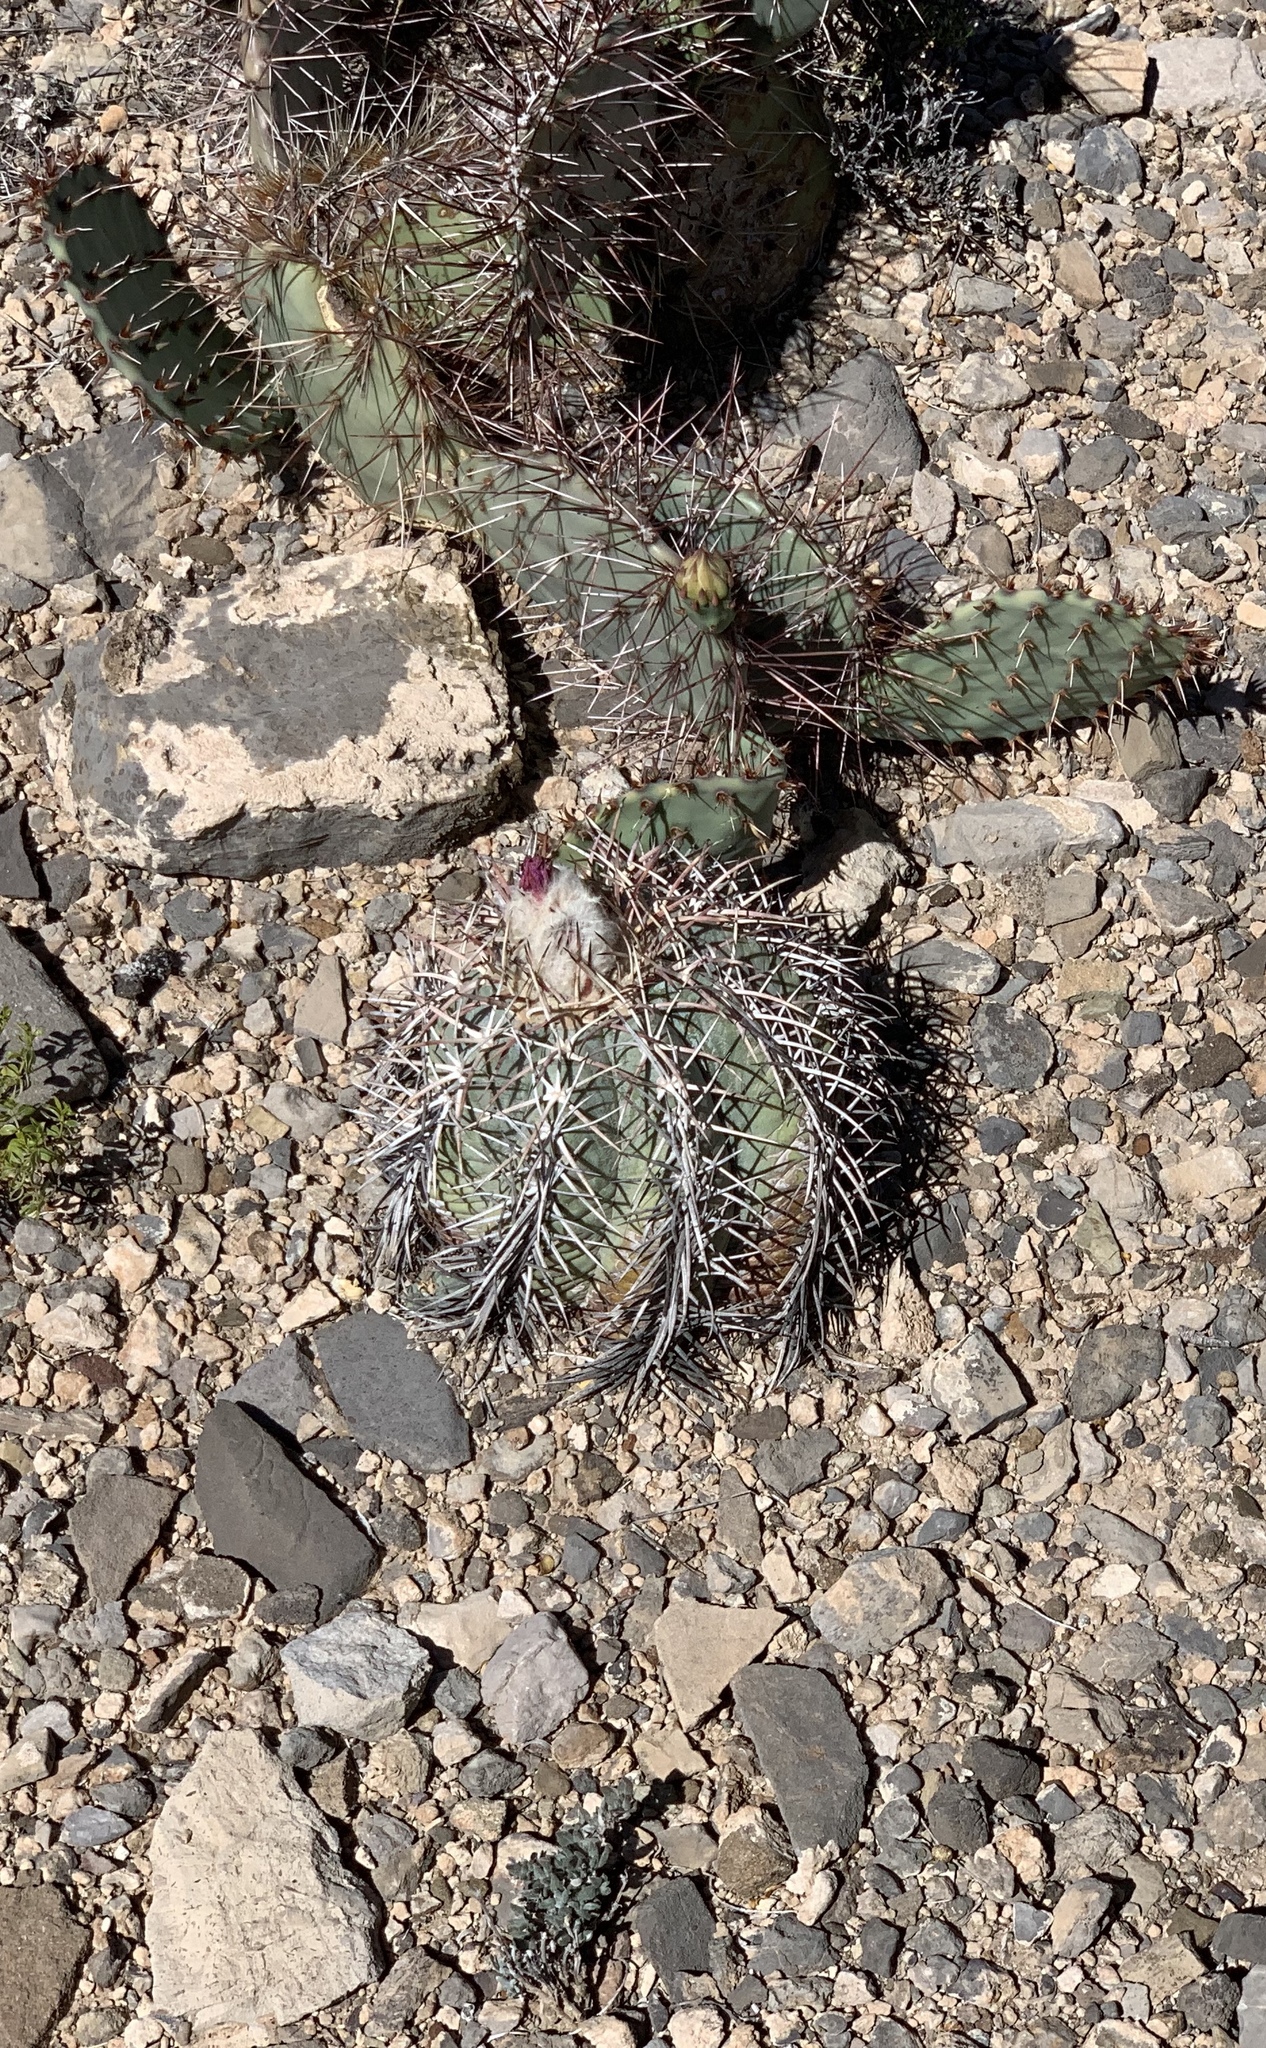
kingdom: Plantae
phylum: Tracheophyta
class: Magnoliopsida
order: Caryophyllales
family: Cactaceae
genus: Echinocactus
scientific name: Echinocactus horizonthalonius
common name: Devilshead
